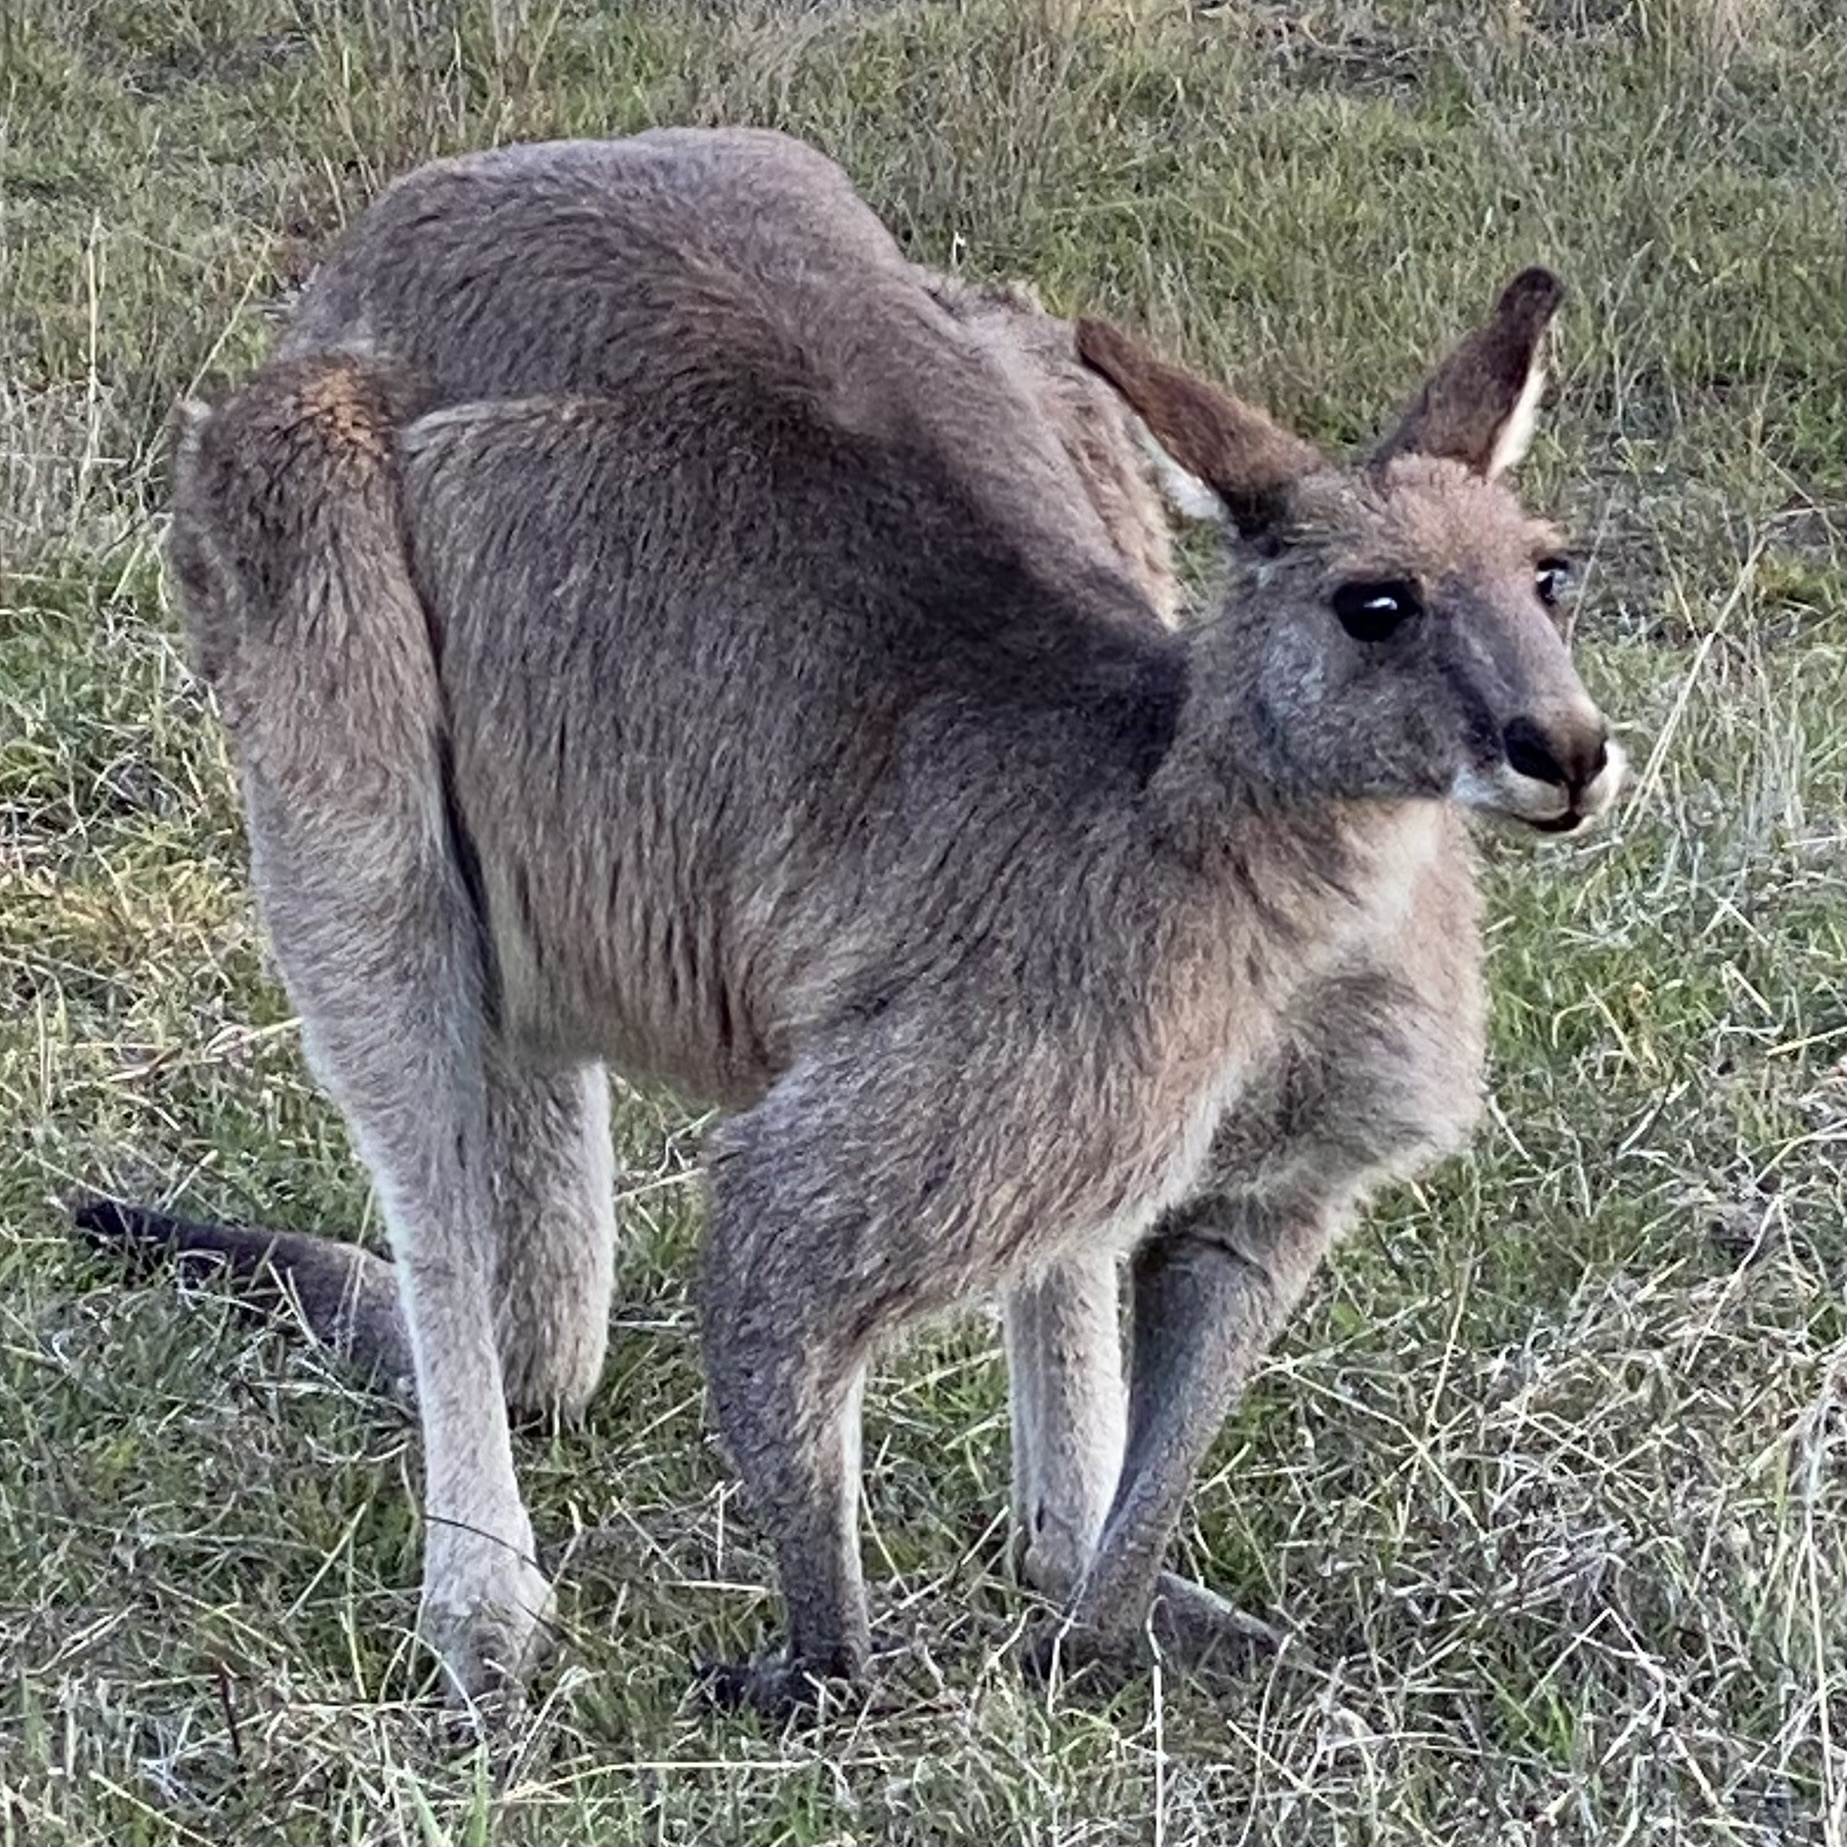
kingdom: Animalia
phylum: Chordata
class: Mammalia
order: Diprotodontia
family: Macropodidae
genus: Macropus
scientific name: Macropus giganteus
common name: Eastern grey kangaroo
